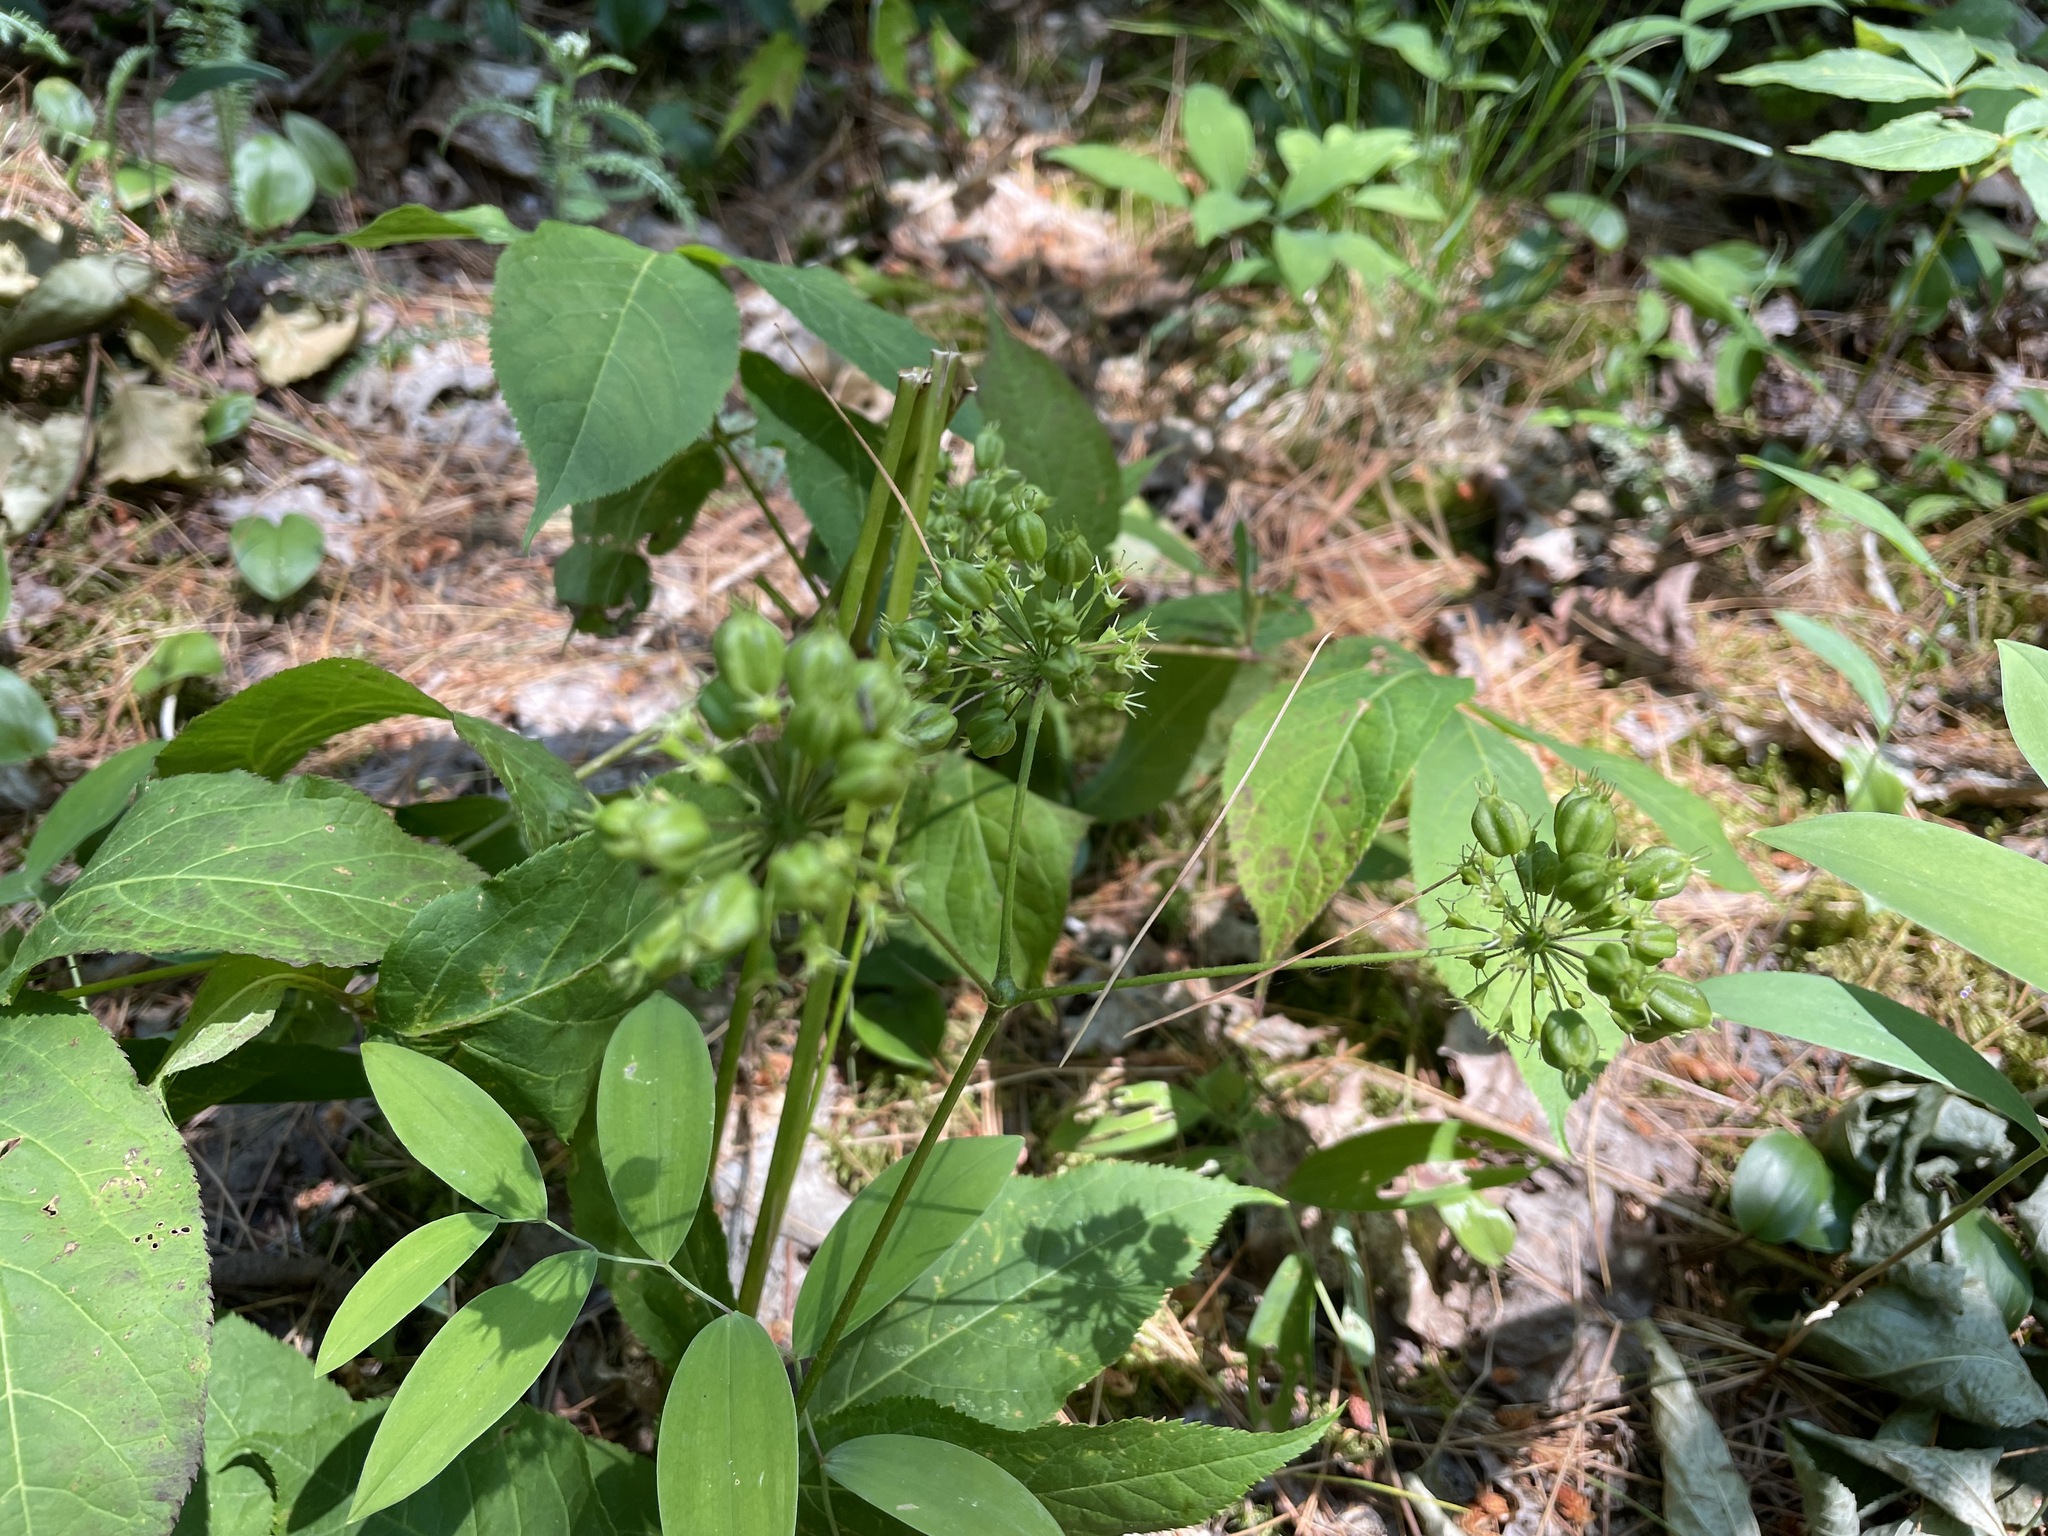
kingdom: Plantae
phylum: Tracheophyta
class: Magnoliopsida
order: Apiales
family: Araliaceae
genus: Aralia
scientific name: Aralia nudicaulis
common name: Wild sarsaparilla
